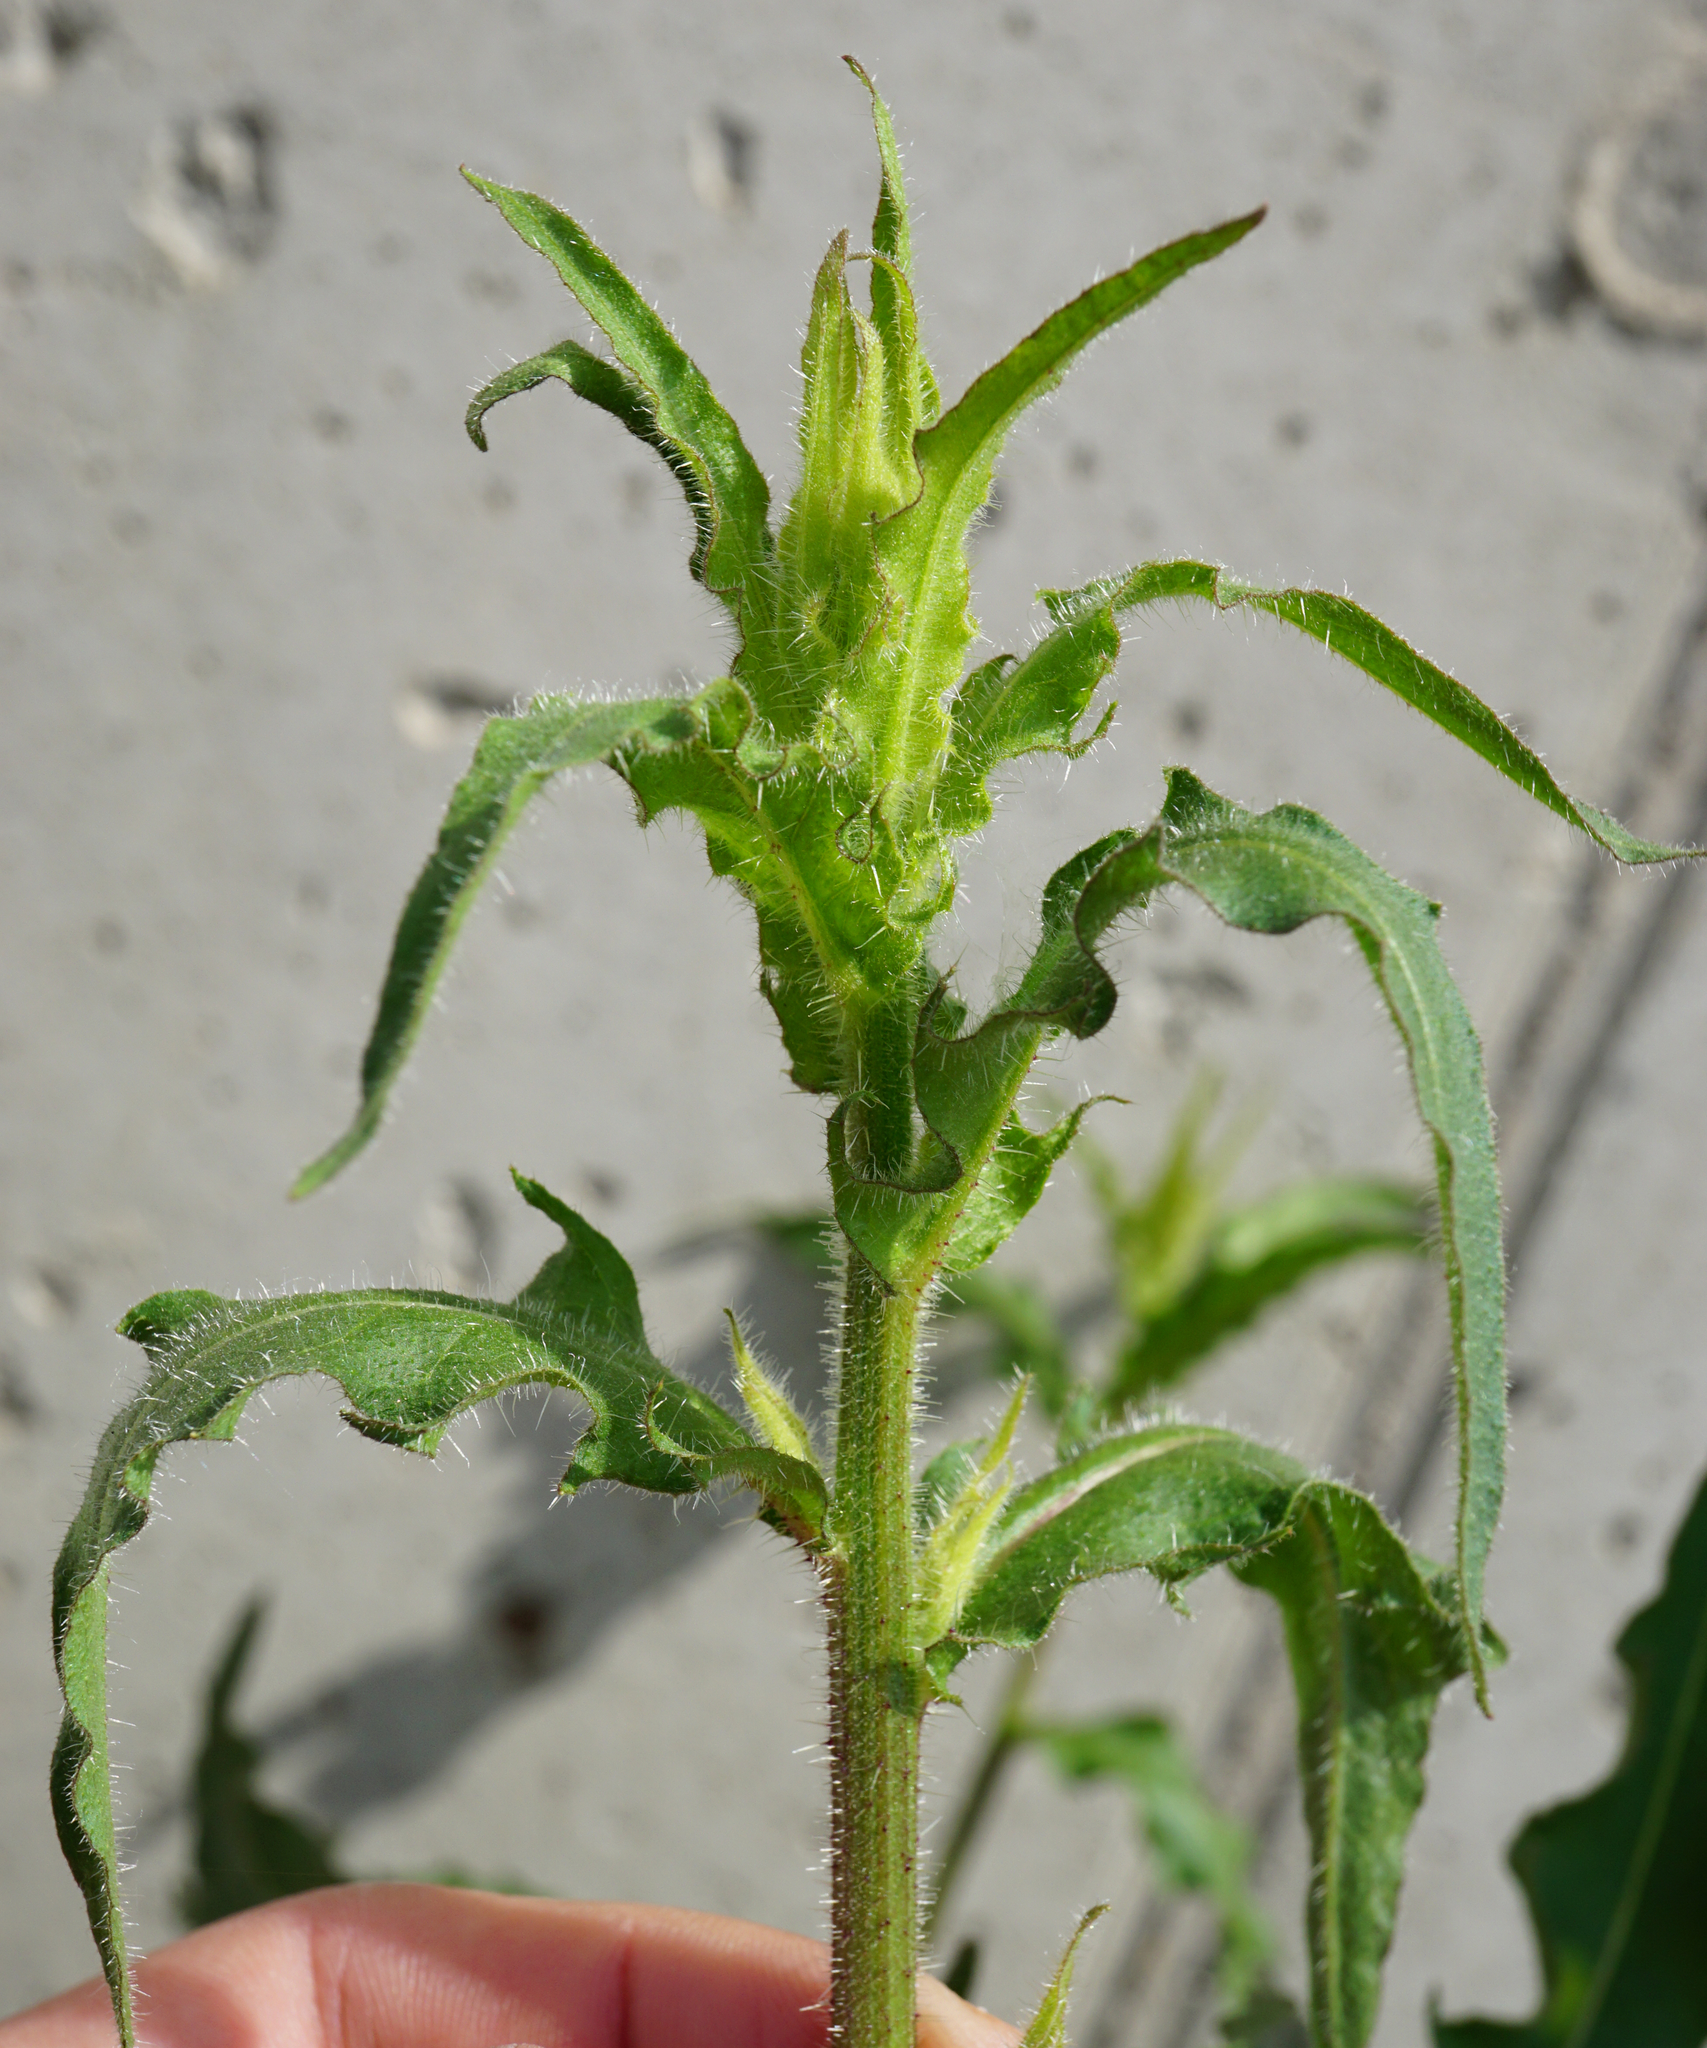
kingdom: Plantae
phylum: Tracheophyta
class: Magnoliopsida
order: Asterales
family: Asteraceae
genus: Picris
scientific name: Picris hieracioides
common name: Hawkweed oxtongue
